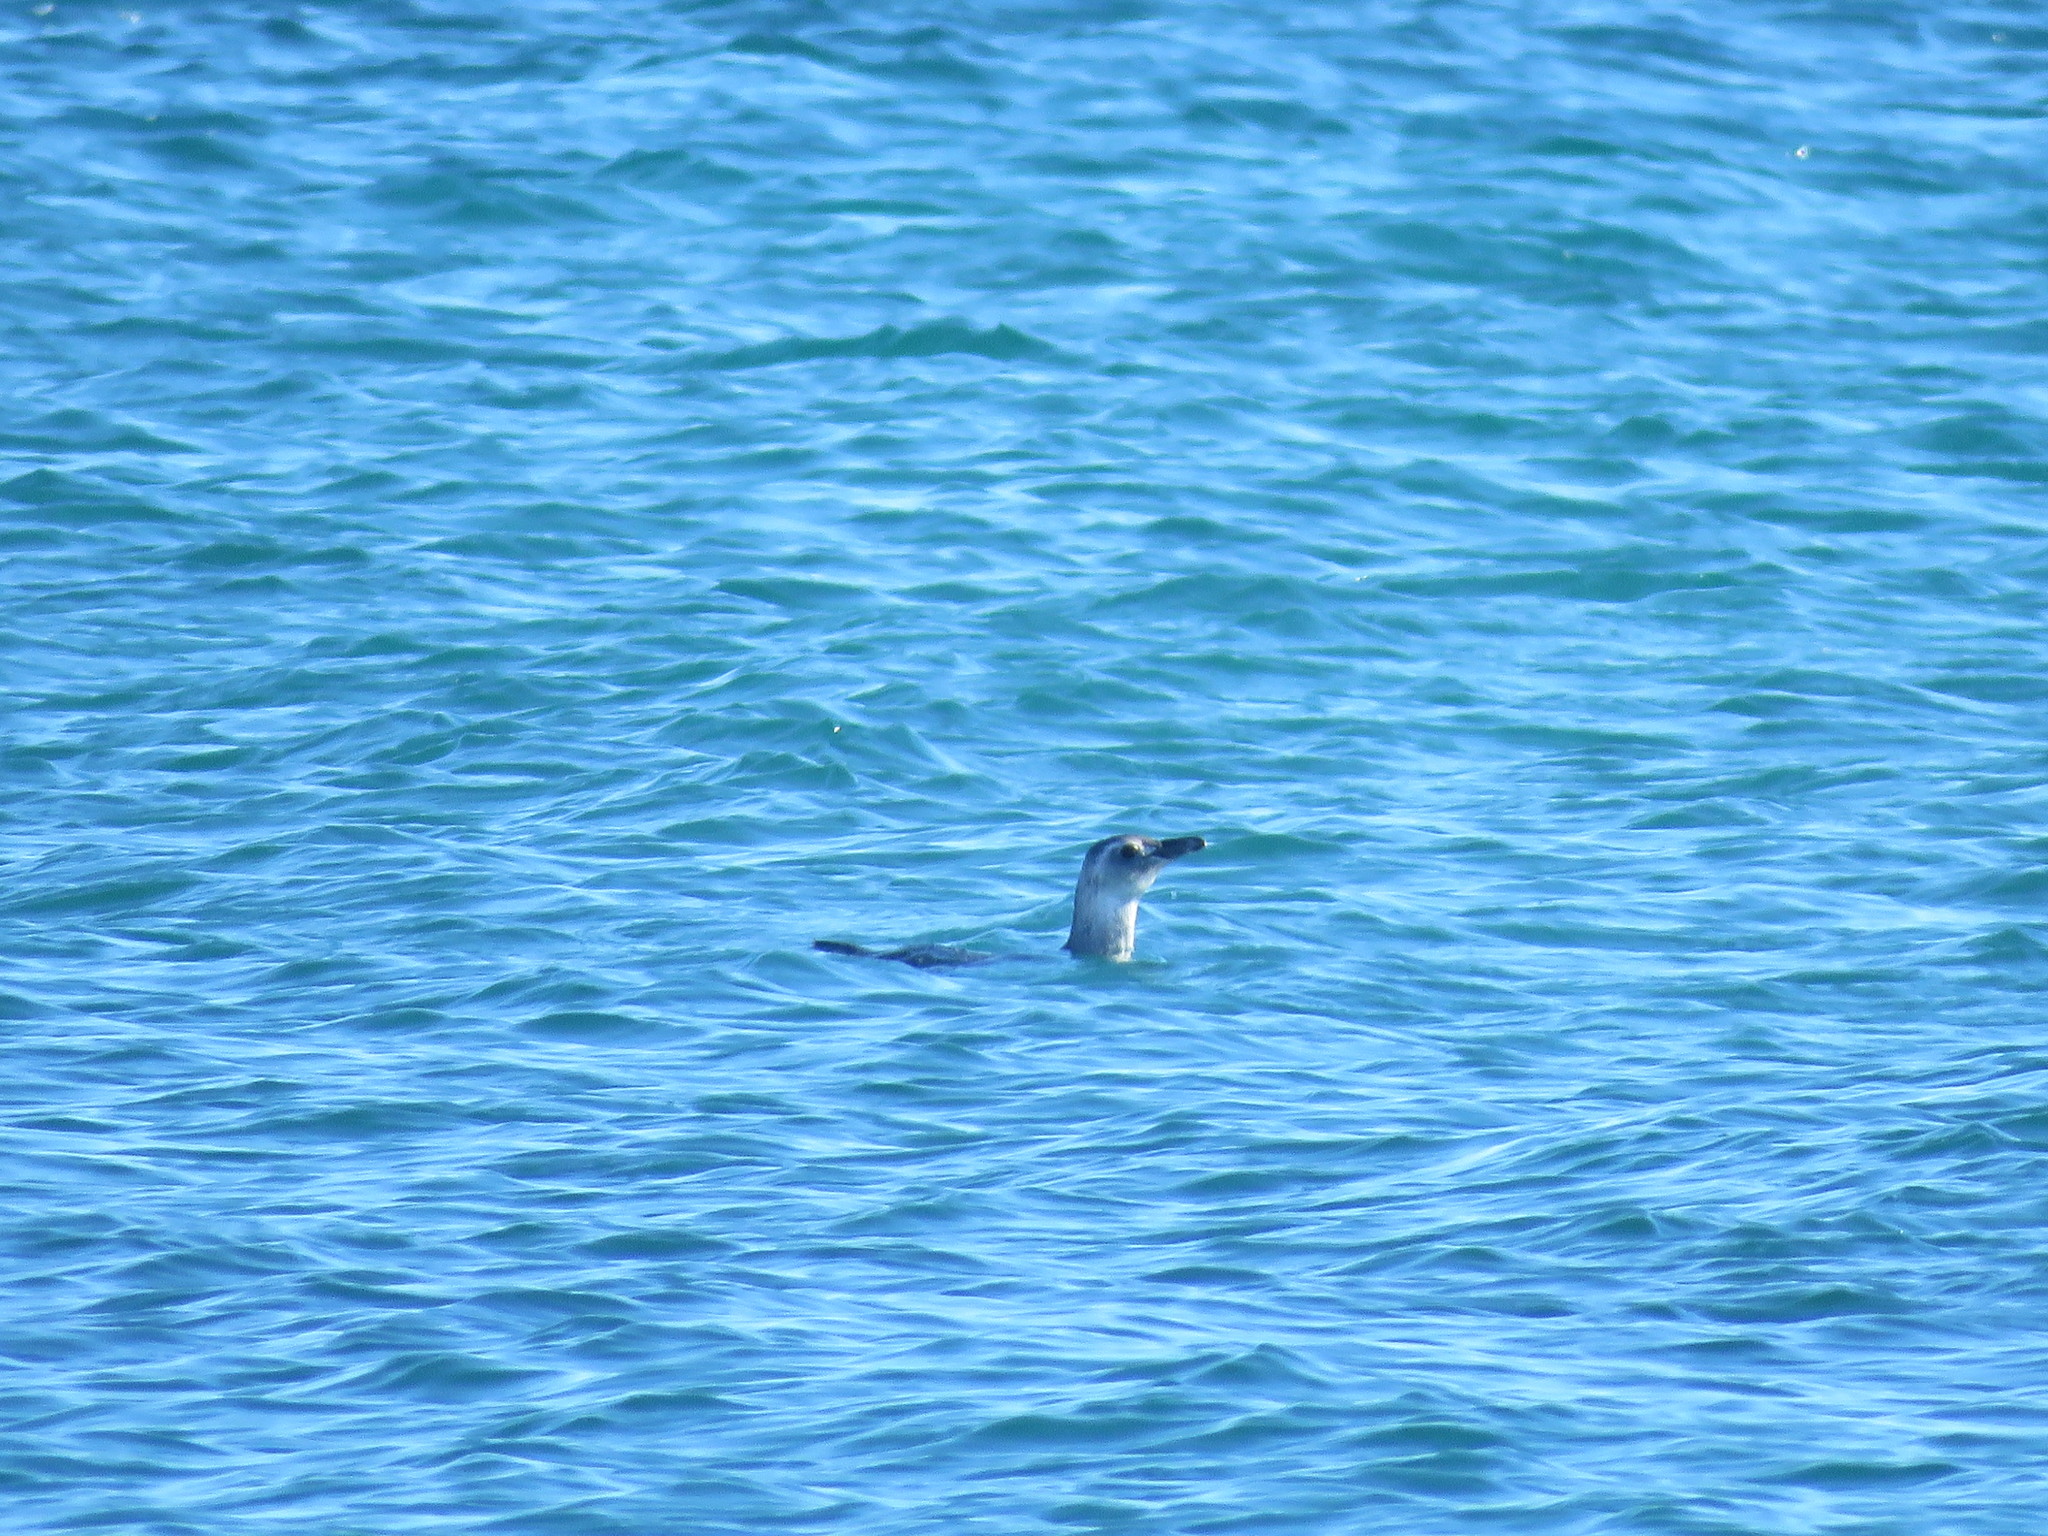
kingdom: Animalia
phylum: Chordata
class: Aves
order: Sphenisciformes
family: Spheniscidae
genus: Spheniscus
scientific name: Spheniscus magellanicus
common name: Magellanic penguin
